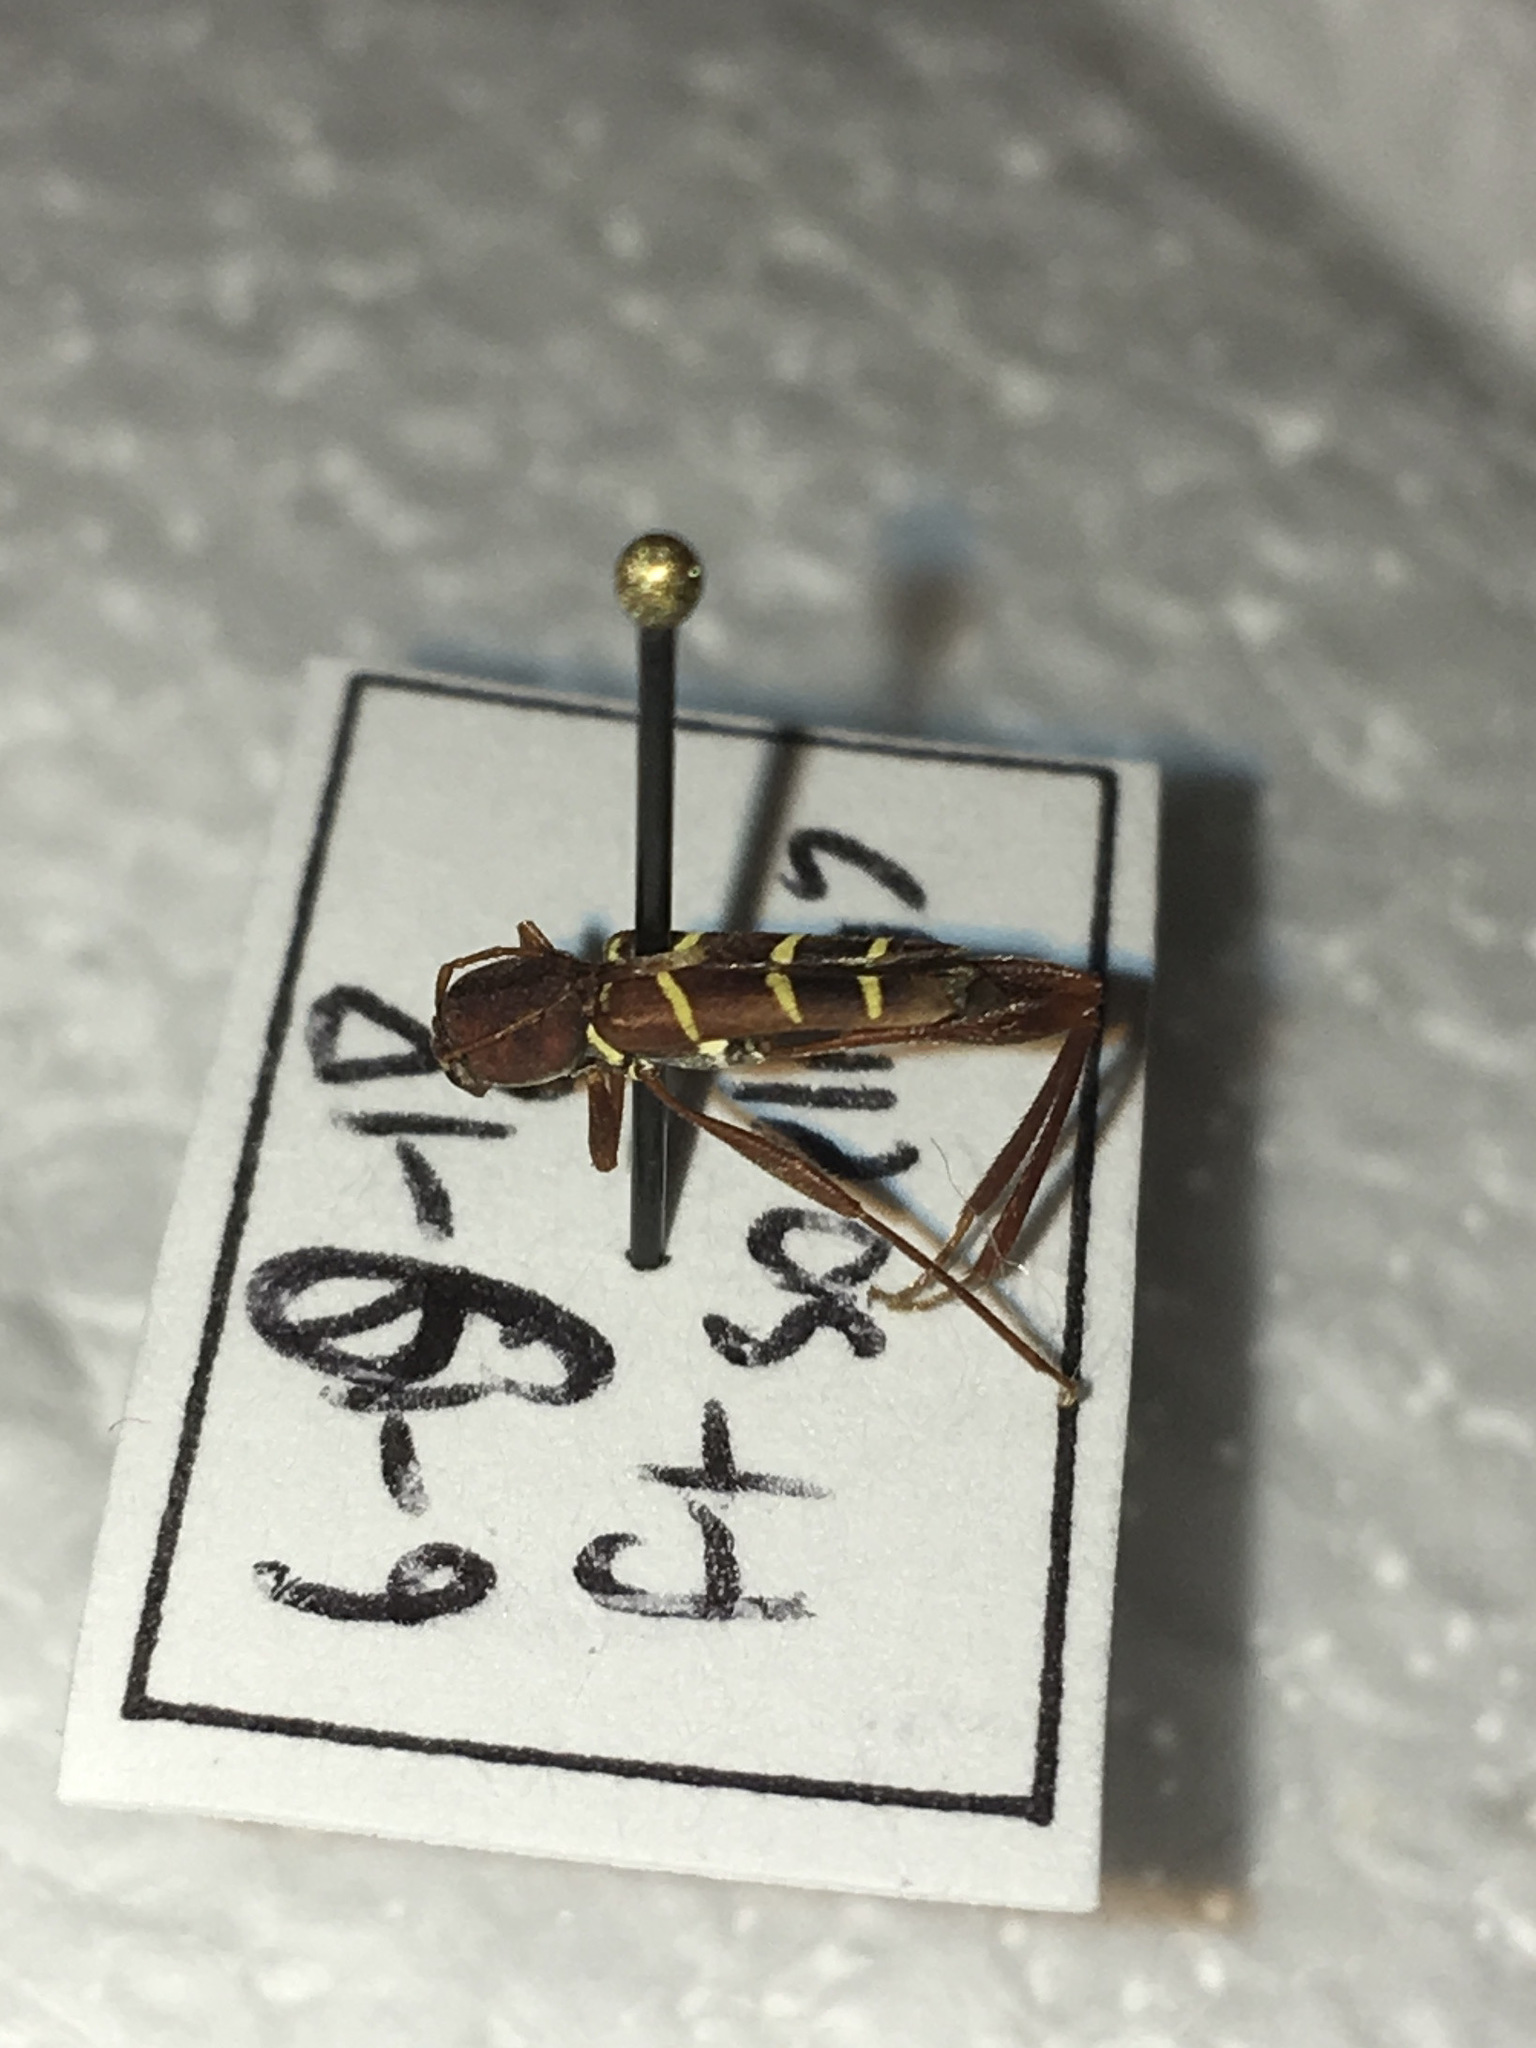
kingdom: Animalia
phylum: Arthropoda
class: Insecta
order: Coleoptera
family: Cerambycidae
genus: Neoclytus
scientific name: Neoclytus acuminatus
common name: Read-headed ash borer
